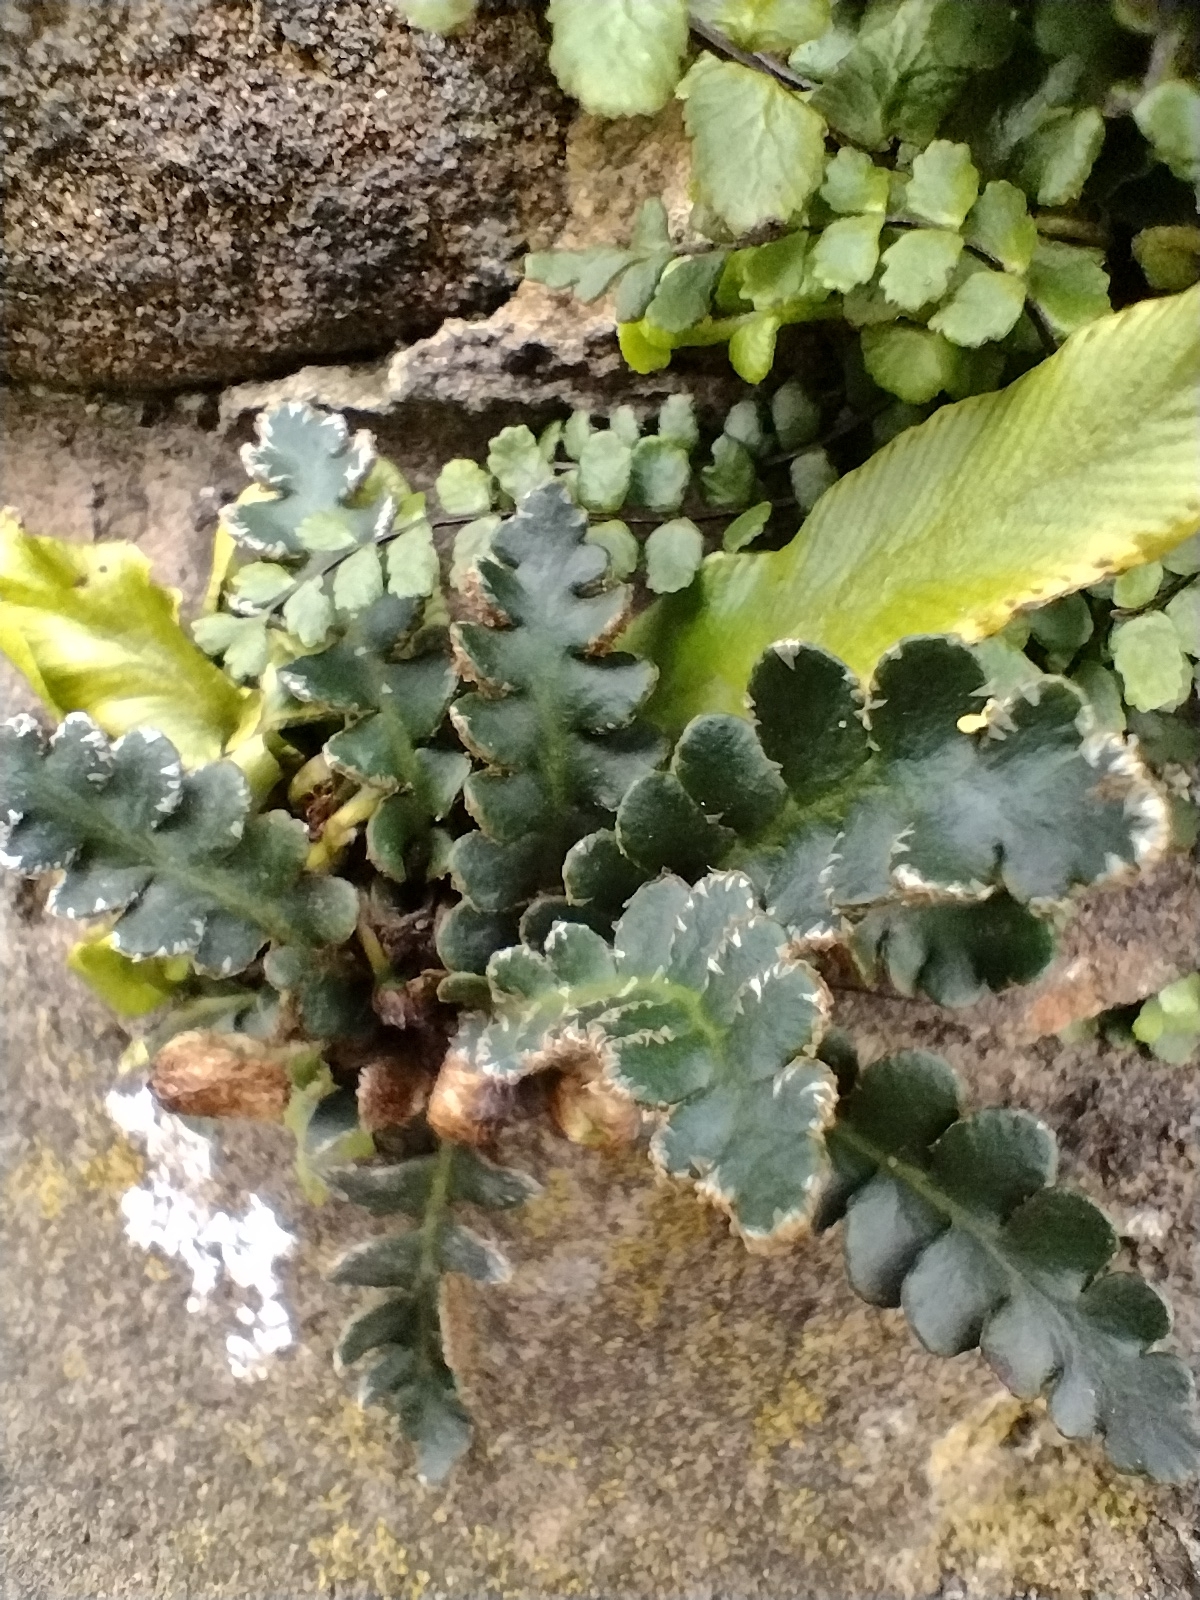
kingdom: Plantae
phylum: Tracheophyta
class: Polypodiopsida
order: Polypodiales
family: Aspleniaceae
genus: Asplenium
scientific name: Asplenium ceterach
